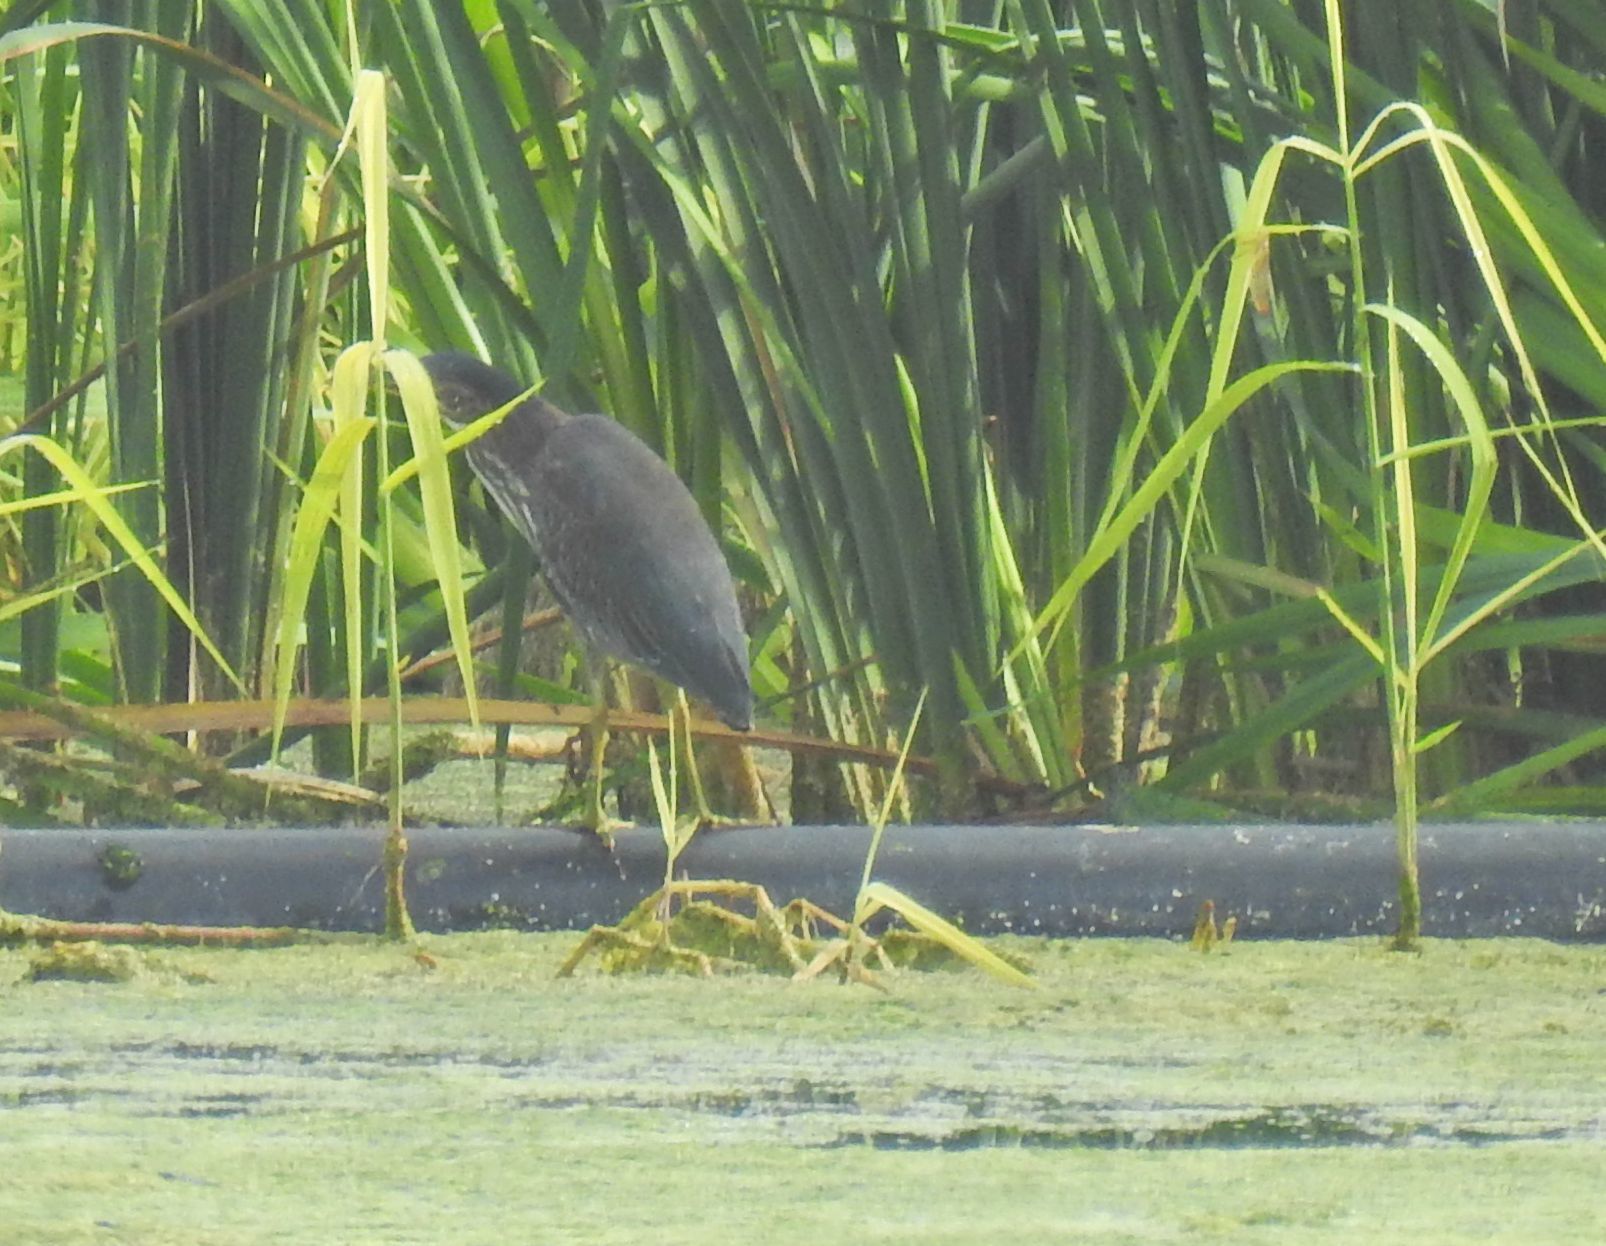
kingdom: Animalia
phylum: Chordata
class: Aves
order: Pelecaniformes
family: Ardeidae
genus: Butorides
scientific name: Butorides virescens
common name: Green heron
